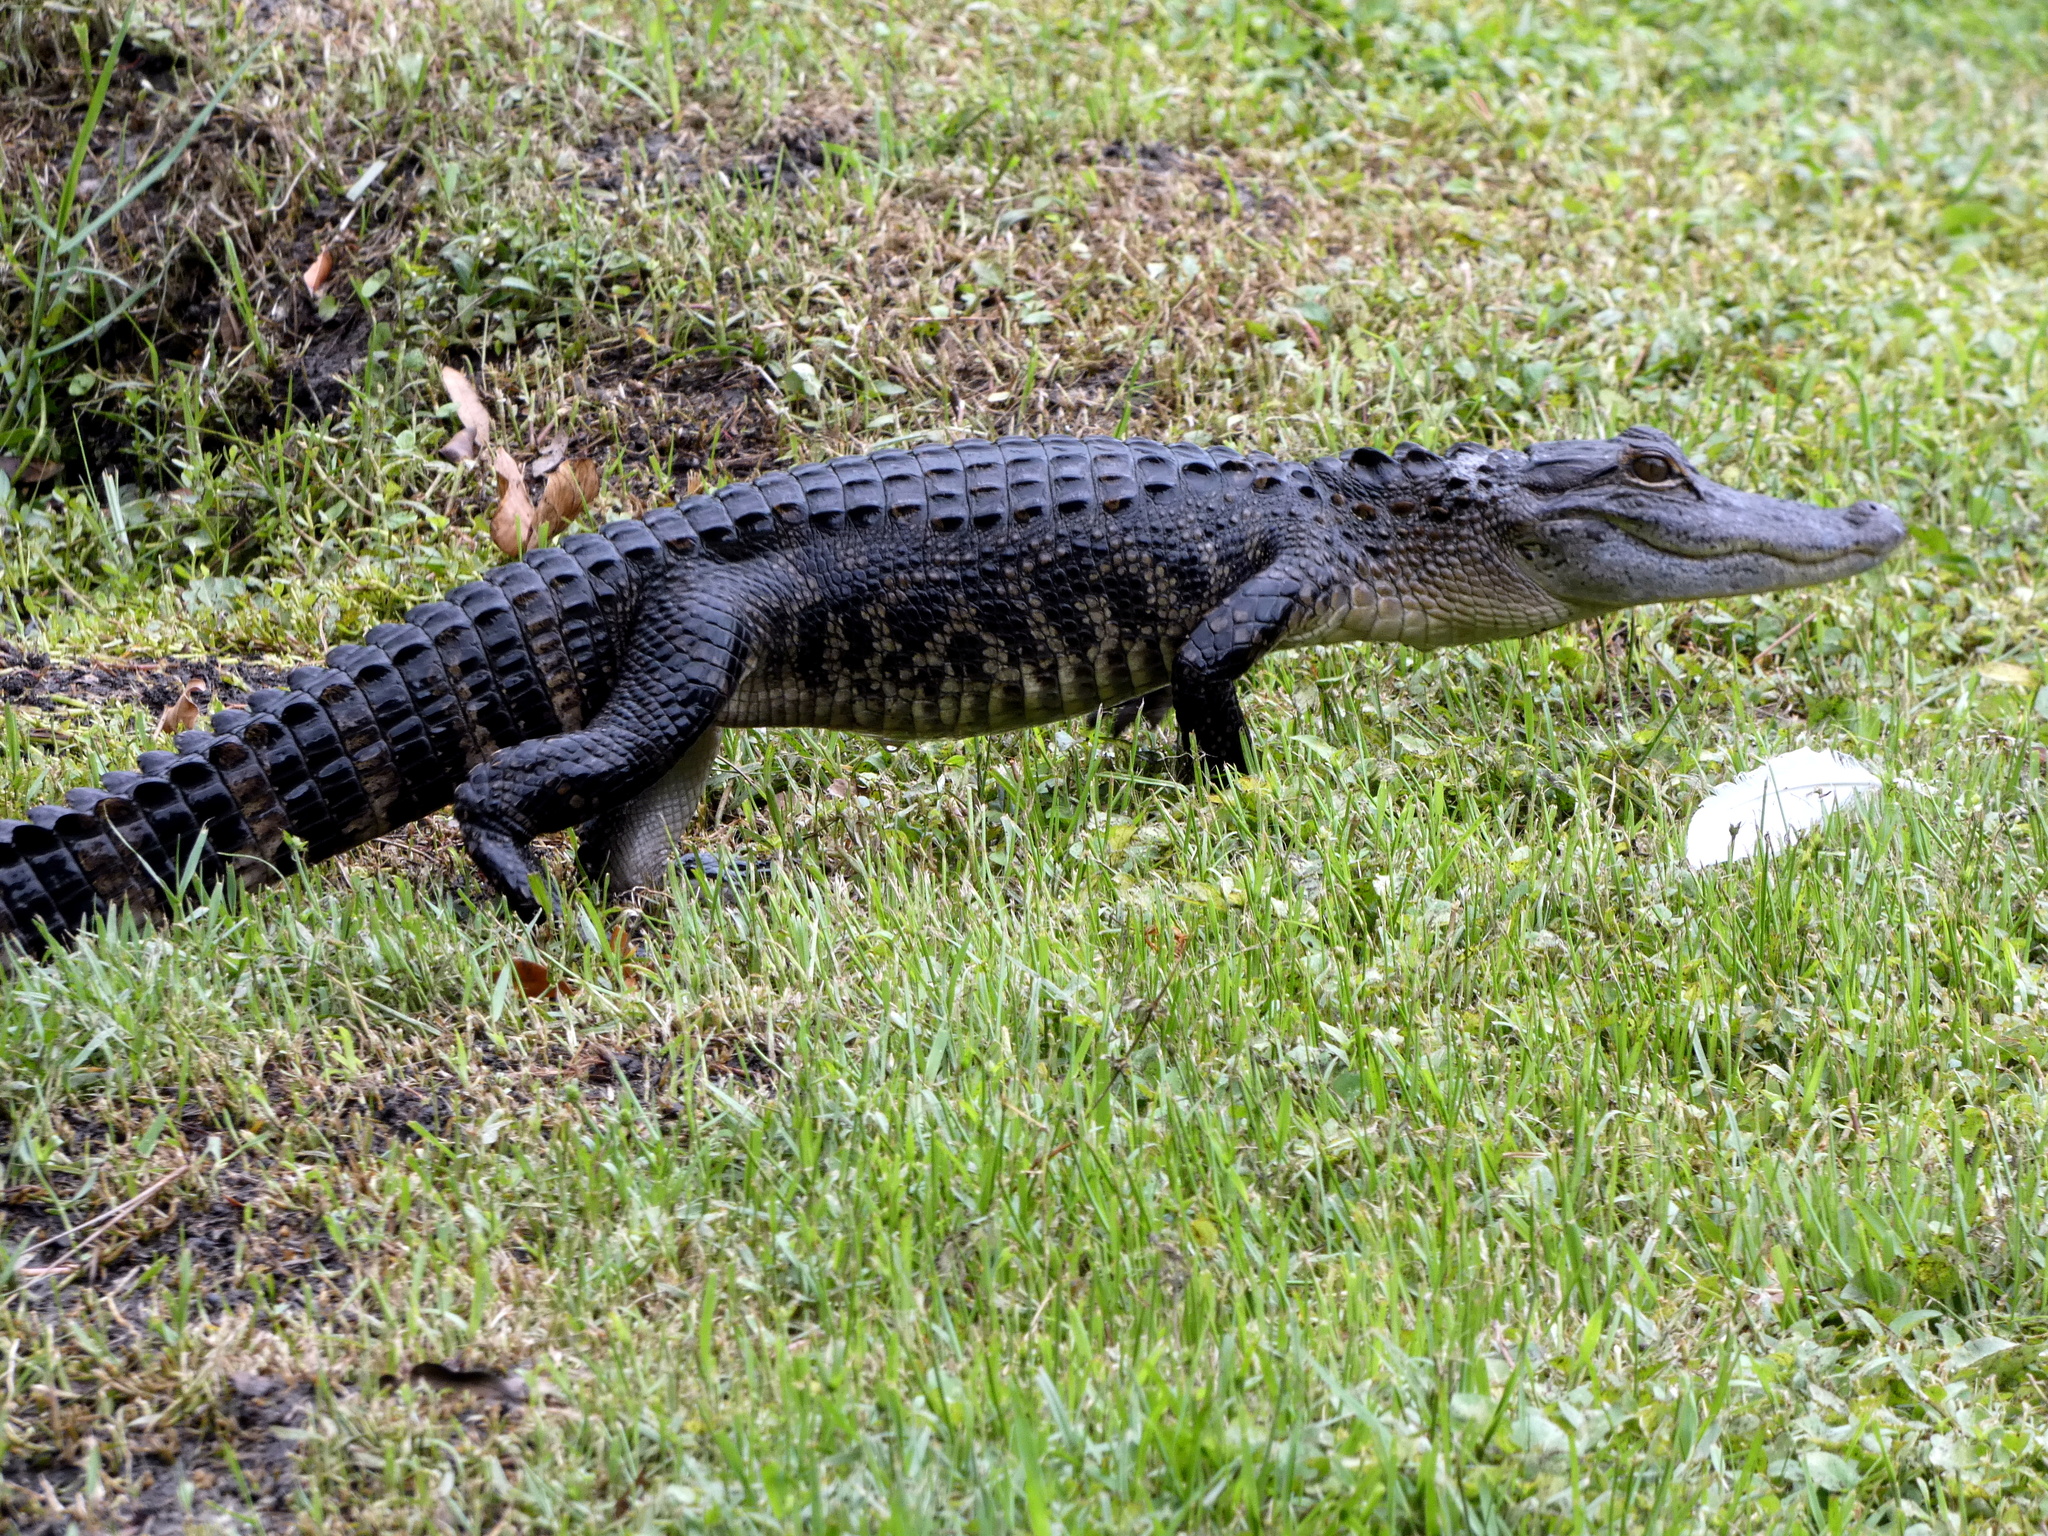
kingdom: Animalia
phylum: Chordata
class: Crocodylia
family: Alligatoridae
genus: Alligator
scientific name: Alligator mississippiensis
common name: American alligator
